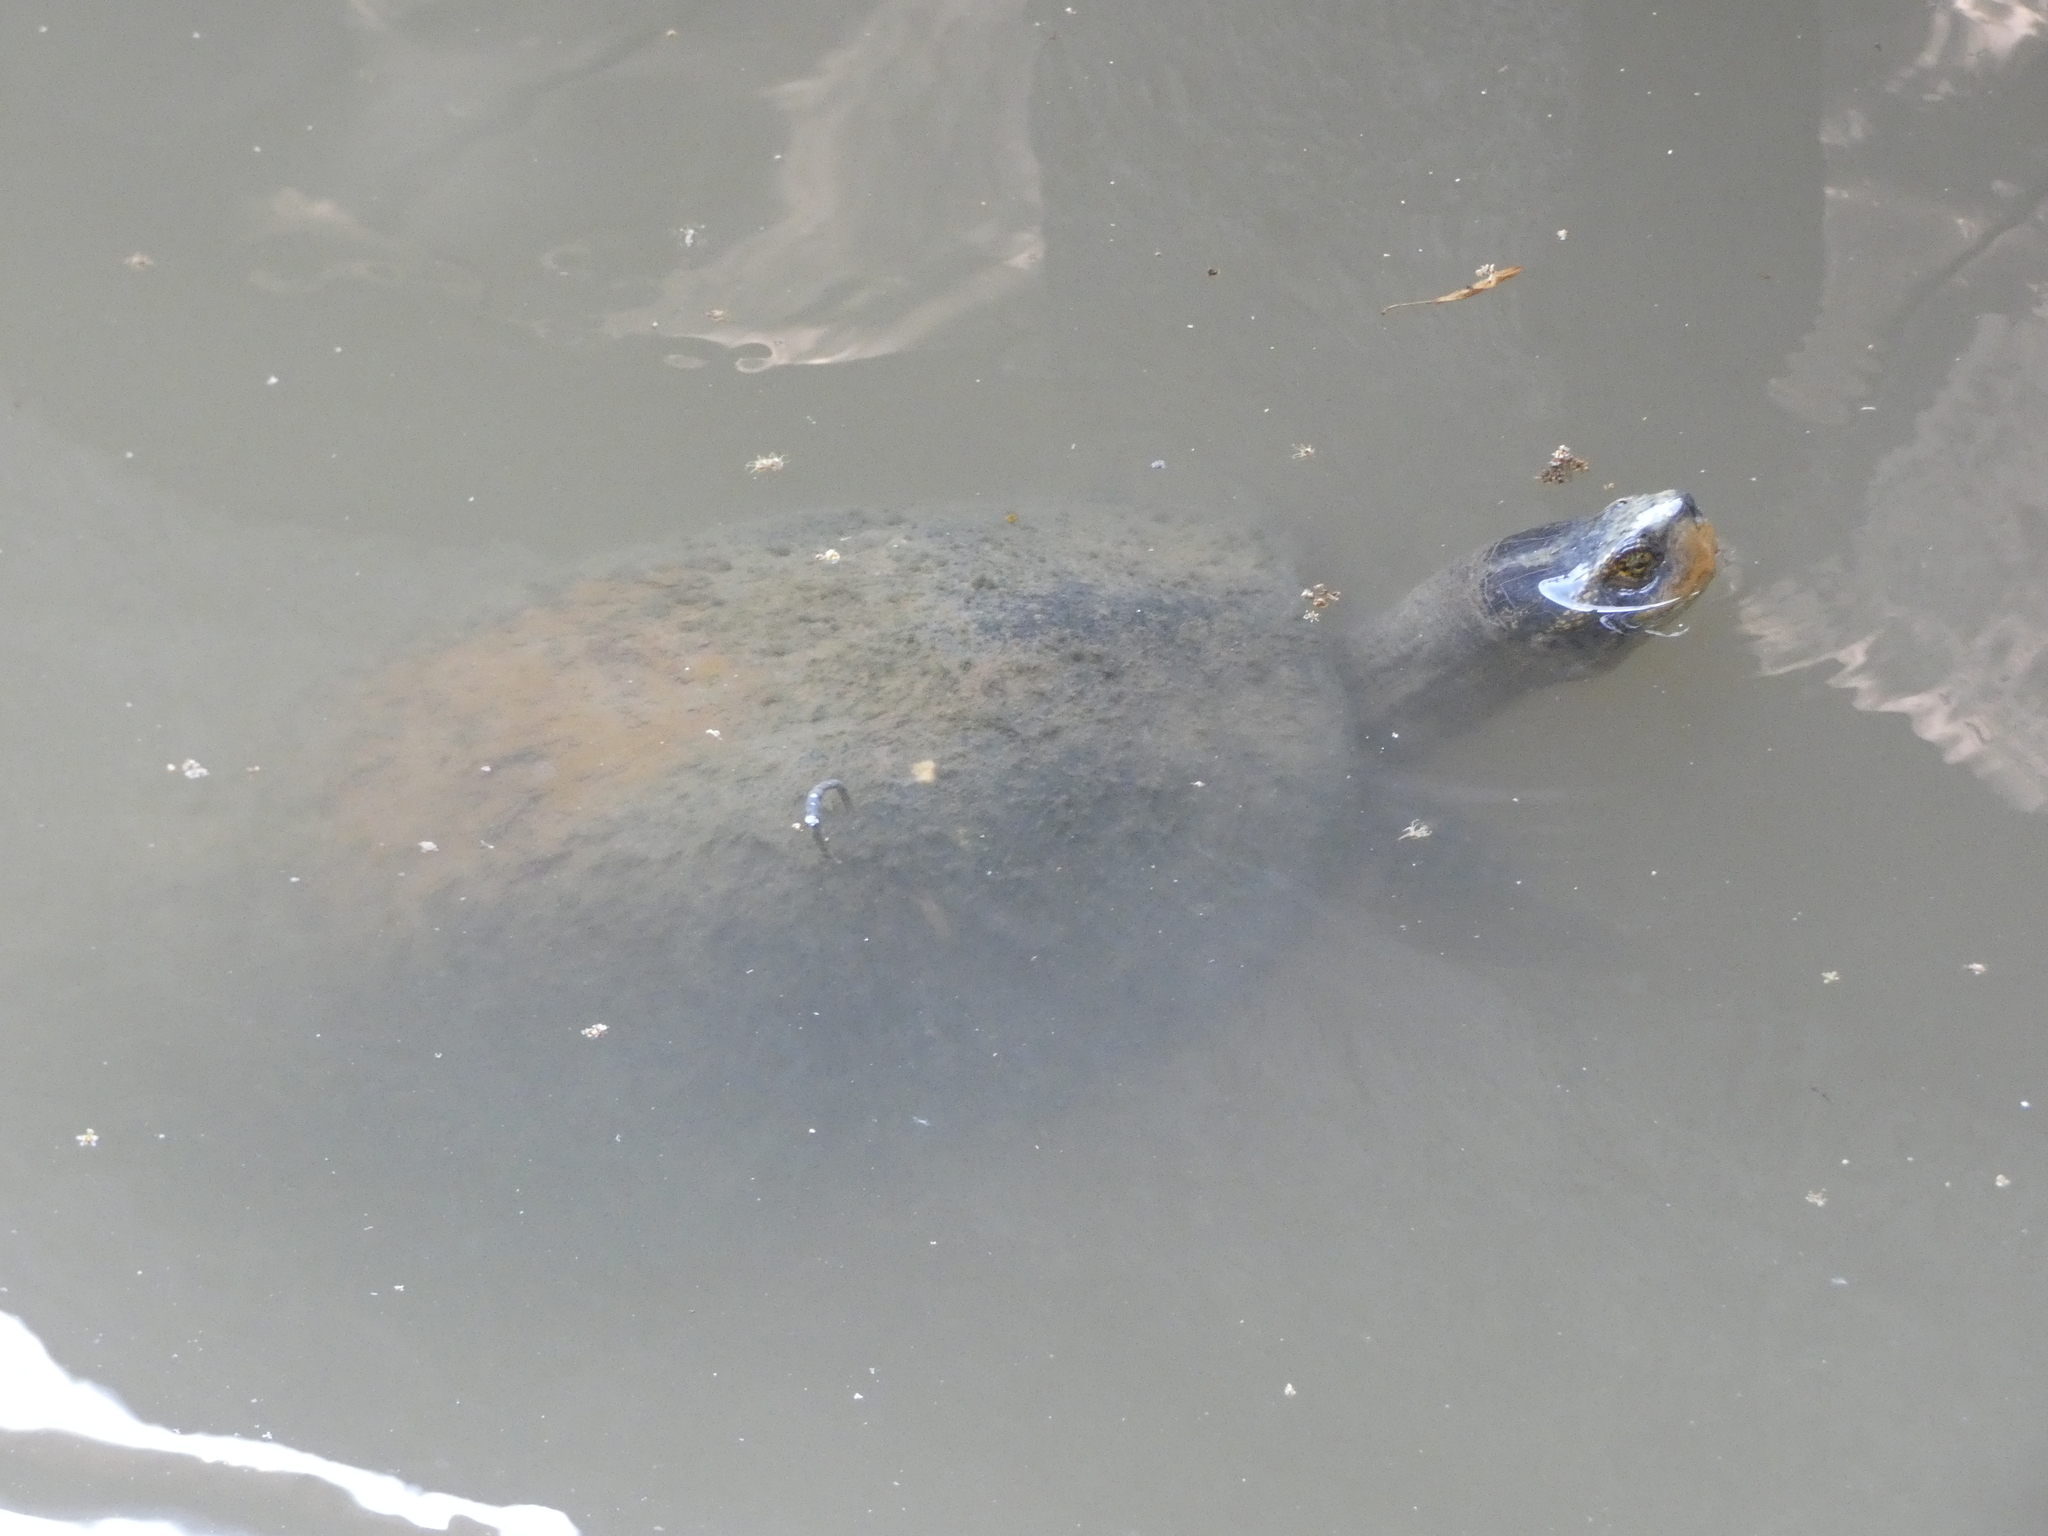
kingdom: Animalia
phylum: Chordata
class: Testudines
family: Geoemydidae
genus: Heosemys
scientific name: Heosemys annandalii
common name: Yellow-headed temple turtle
